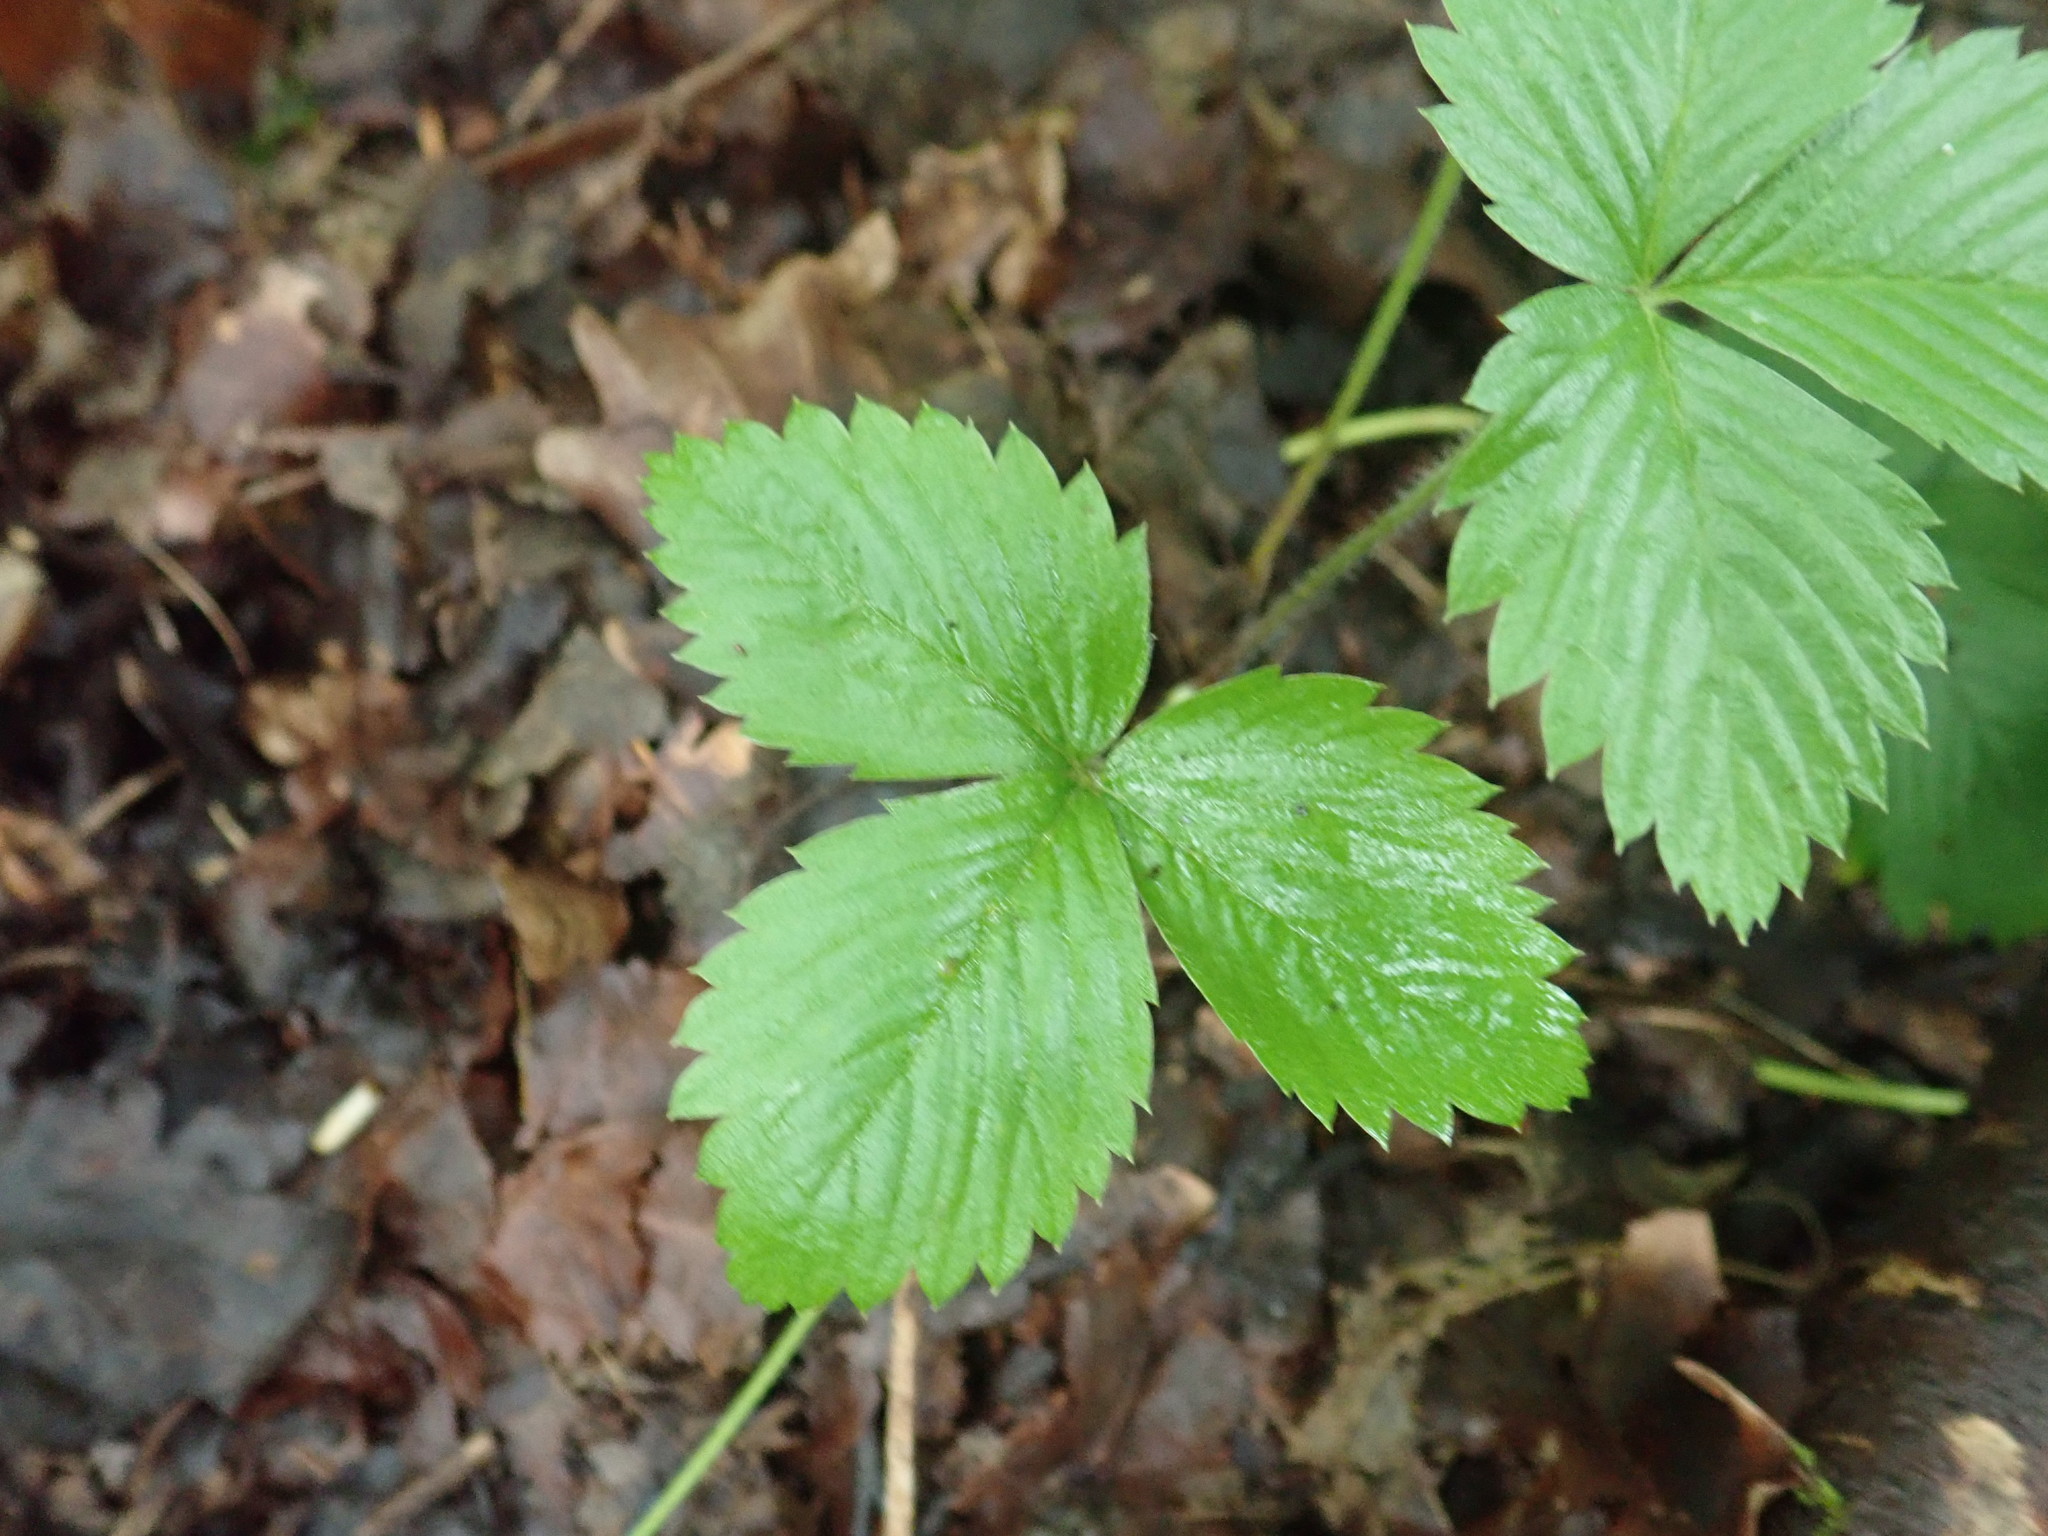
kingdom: Plantae
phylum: Tracheophyta
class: Magnoliopsida
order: Rosales
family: Rosaceae
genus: Fragaria
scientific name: Fragaria vesca
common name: Wild strawberry
